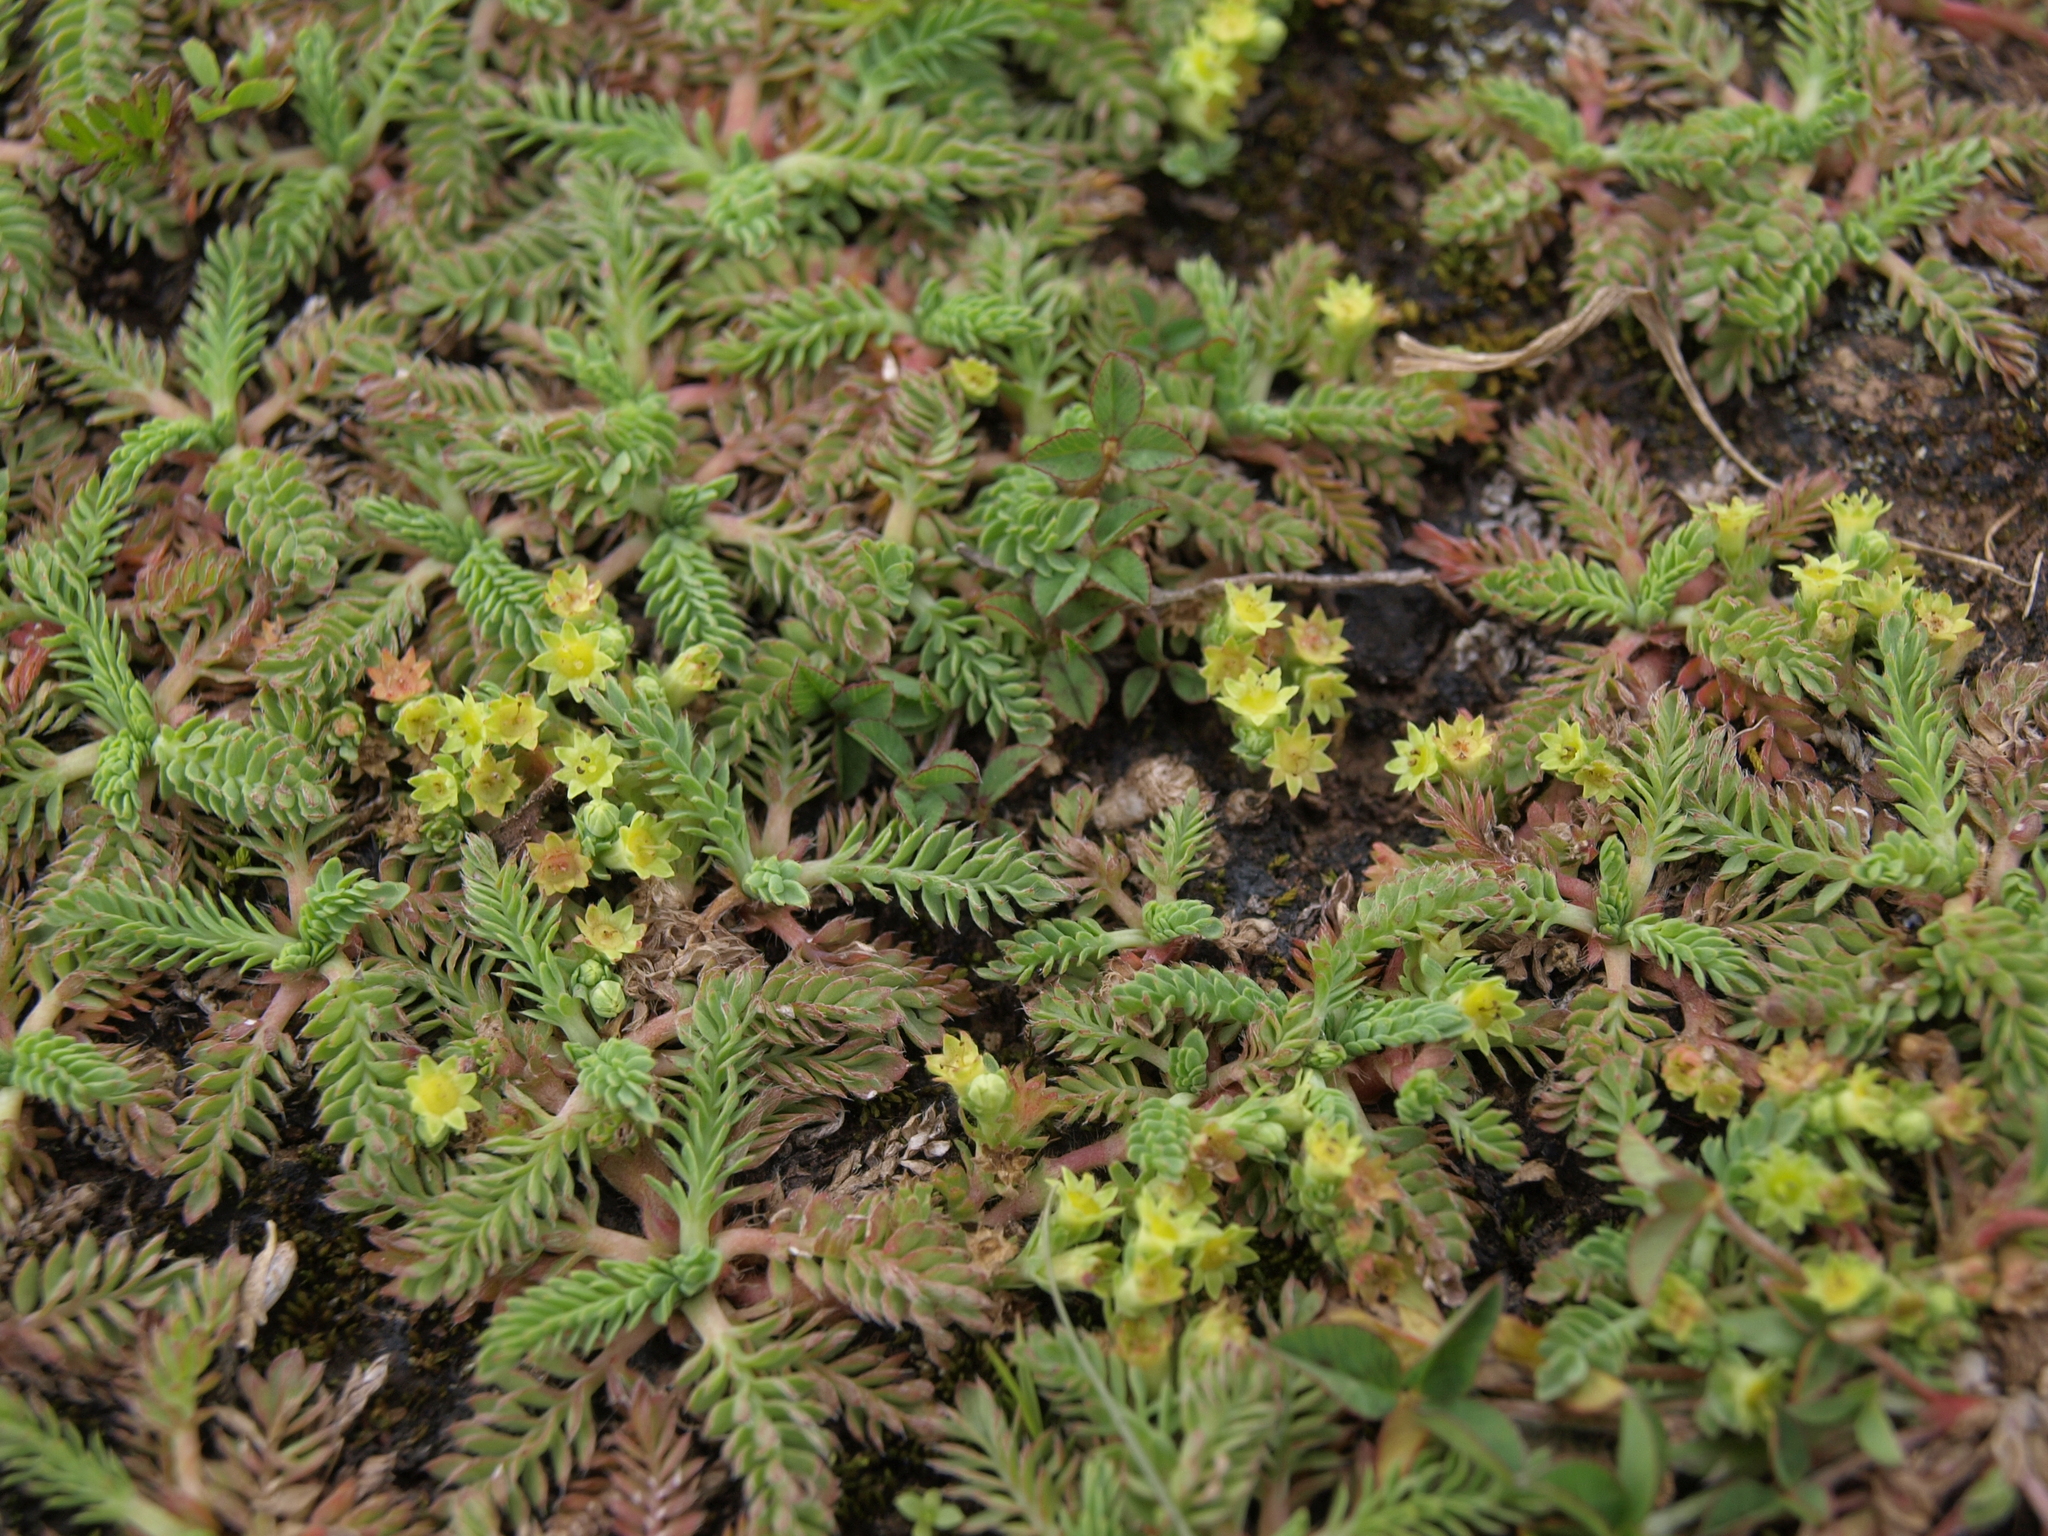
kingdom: Plantae
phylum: Tracheophyta
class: Magnoliopsida
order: Rosales
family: Rosaceae
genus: Lachemilla
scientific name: Lachemilla
